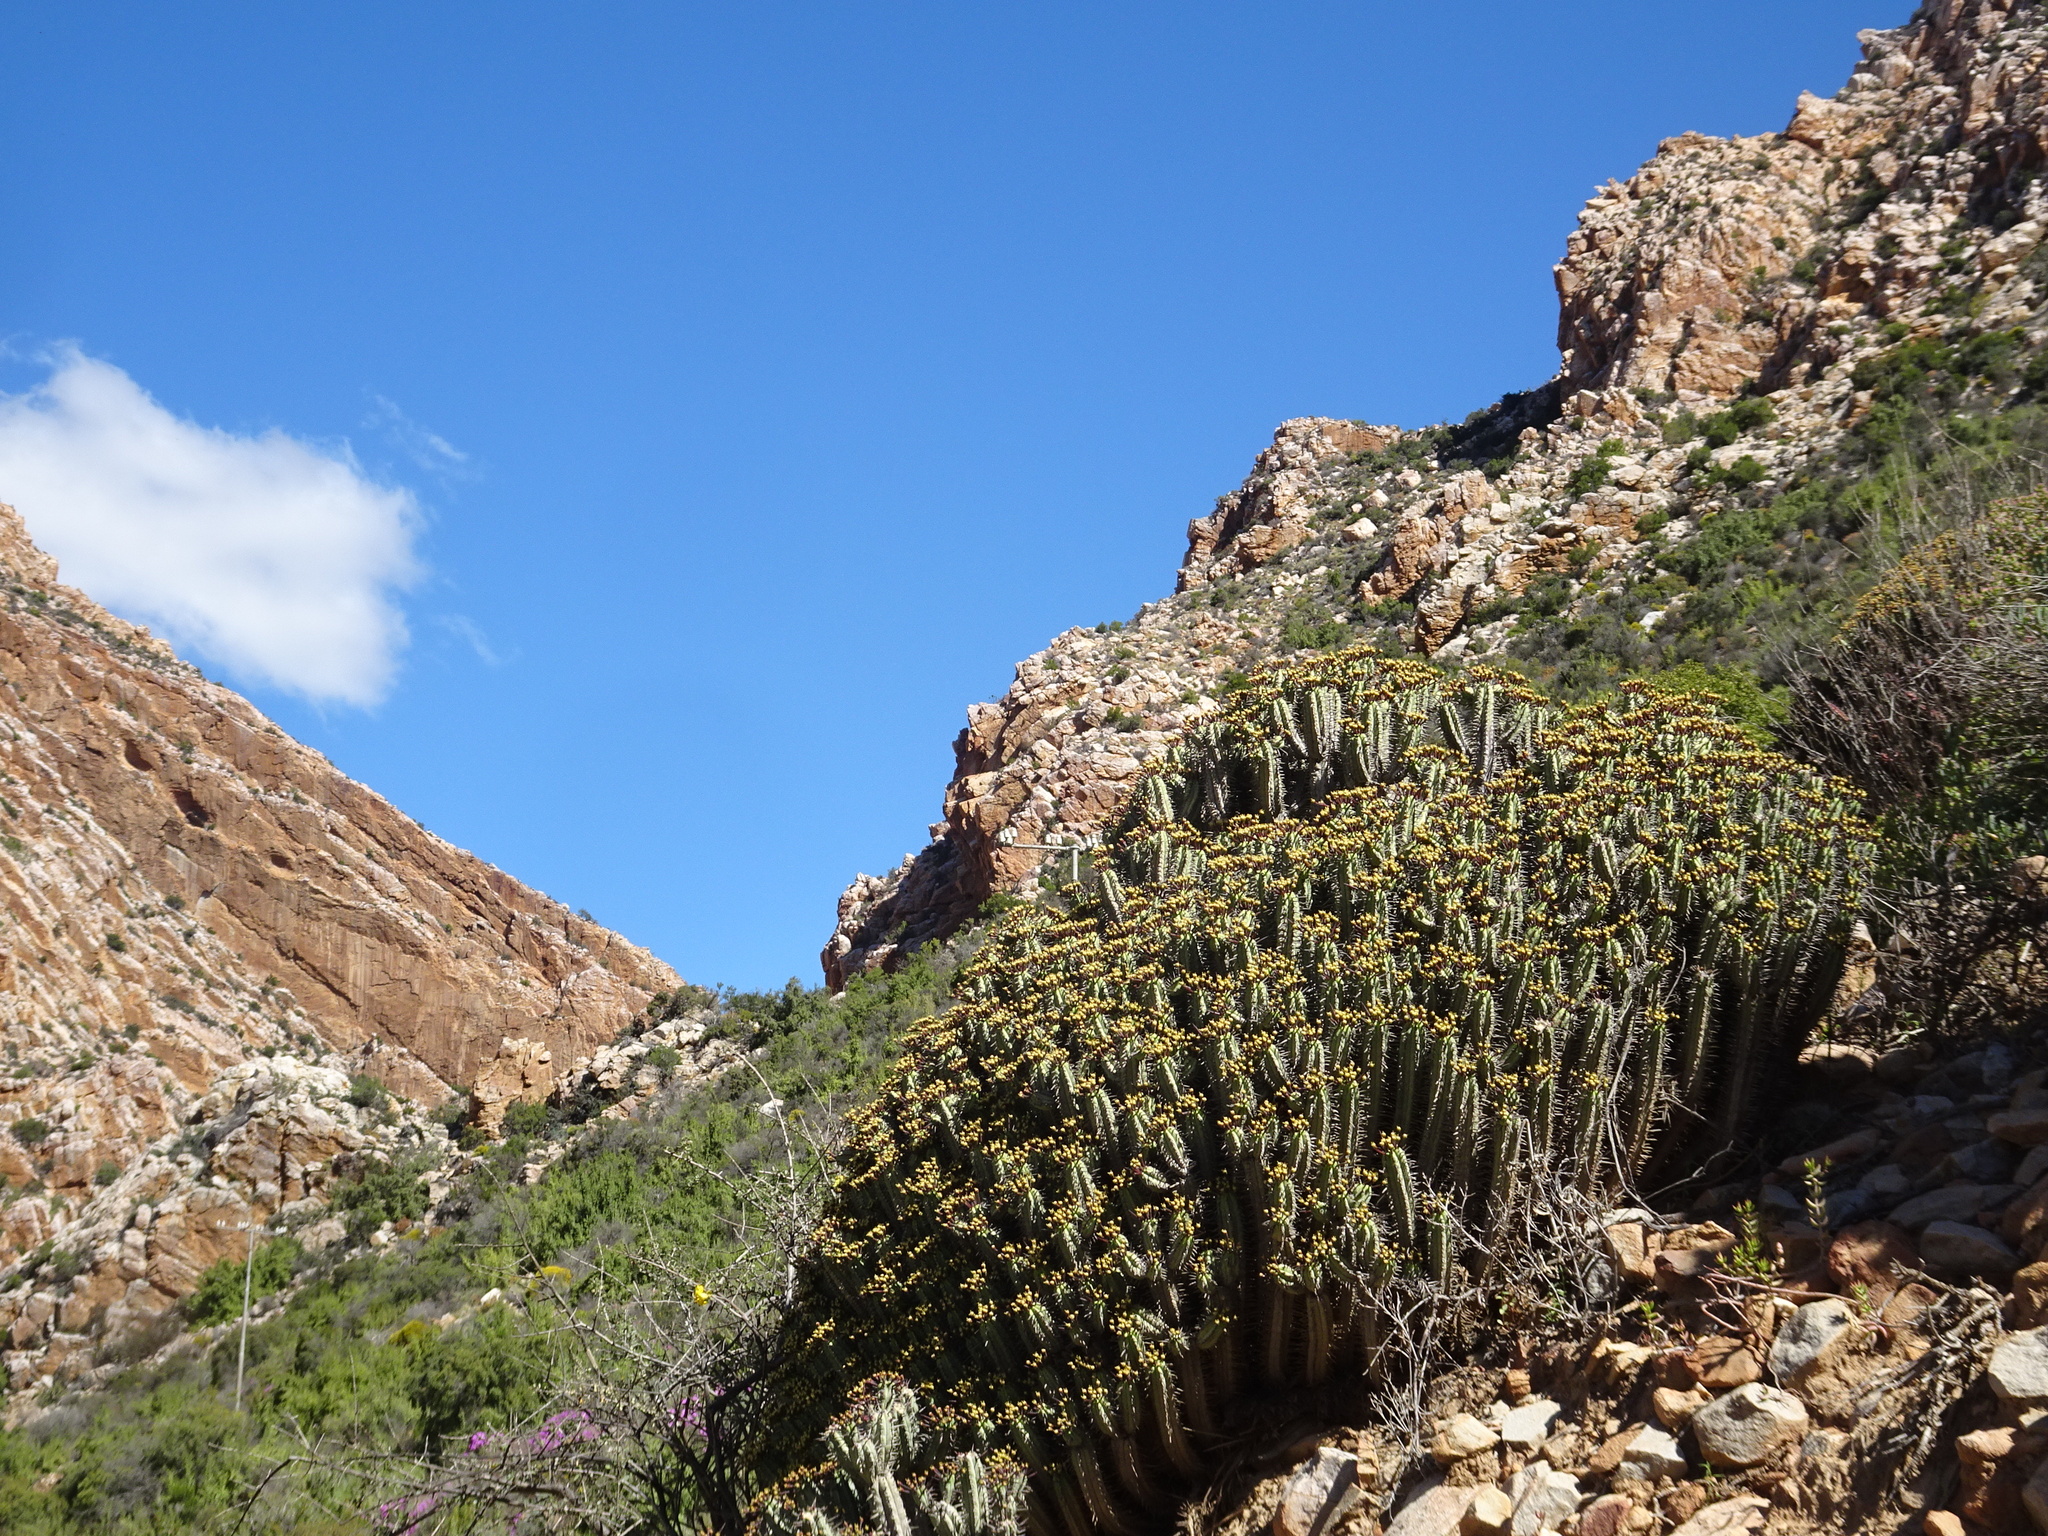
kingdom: Plantae
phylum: Tracheophyta
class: Magnoliopsida
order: Malpighiales
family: Euphorbiaceae
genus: Euphorbia
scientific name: Euphorbia heptagona
